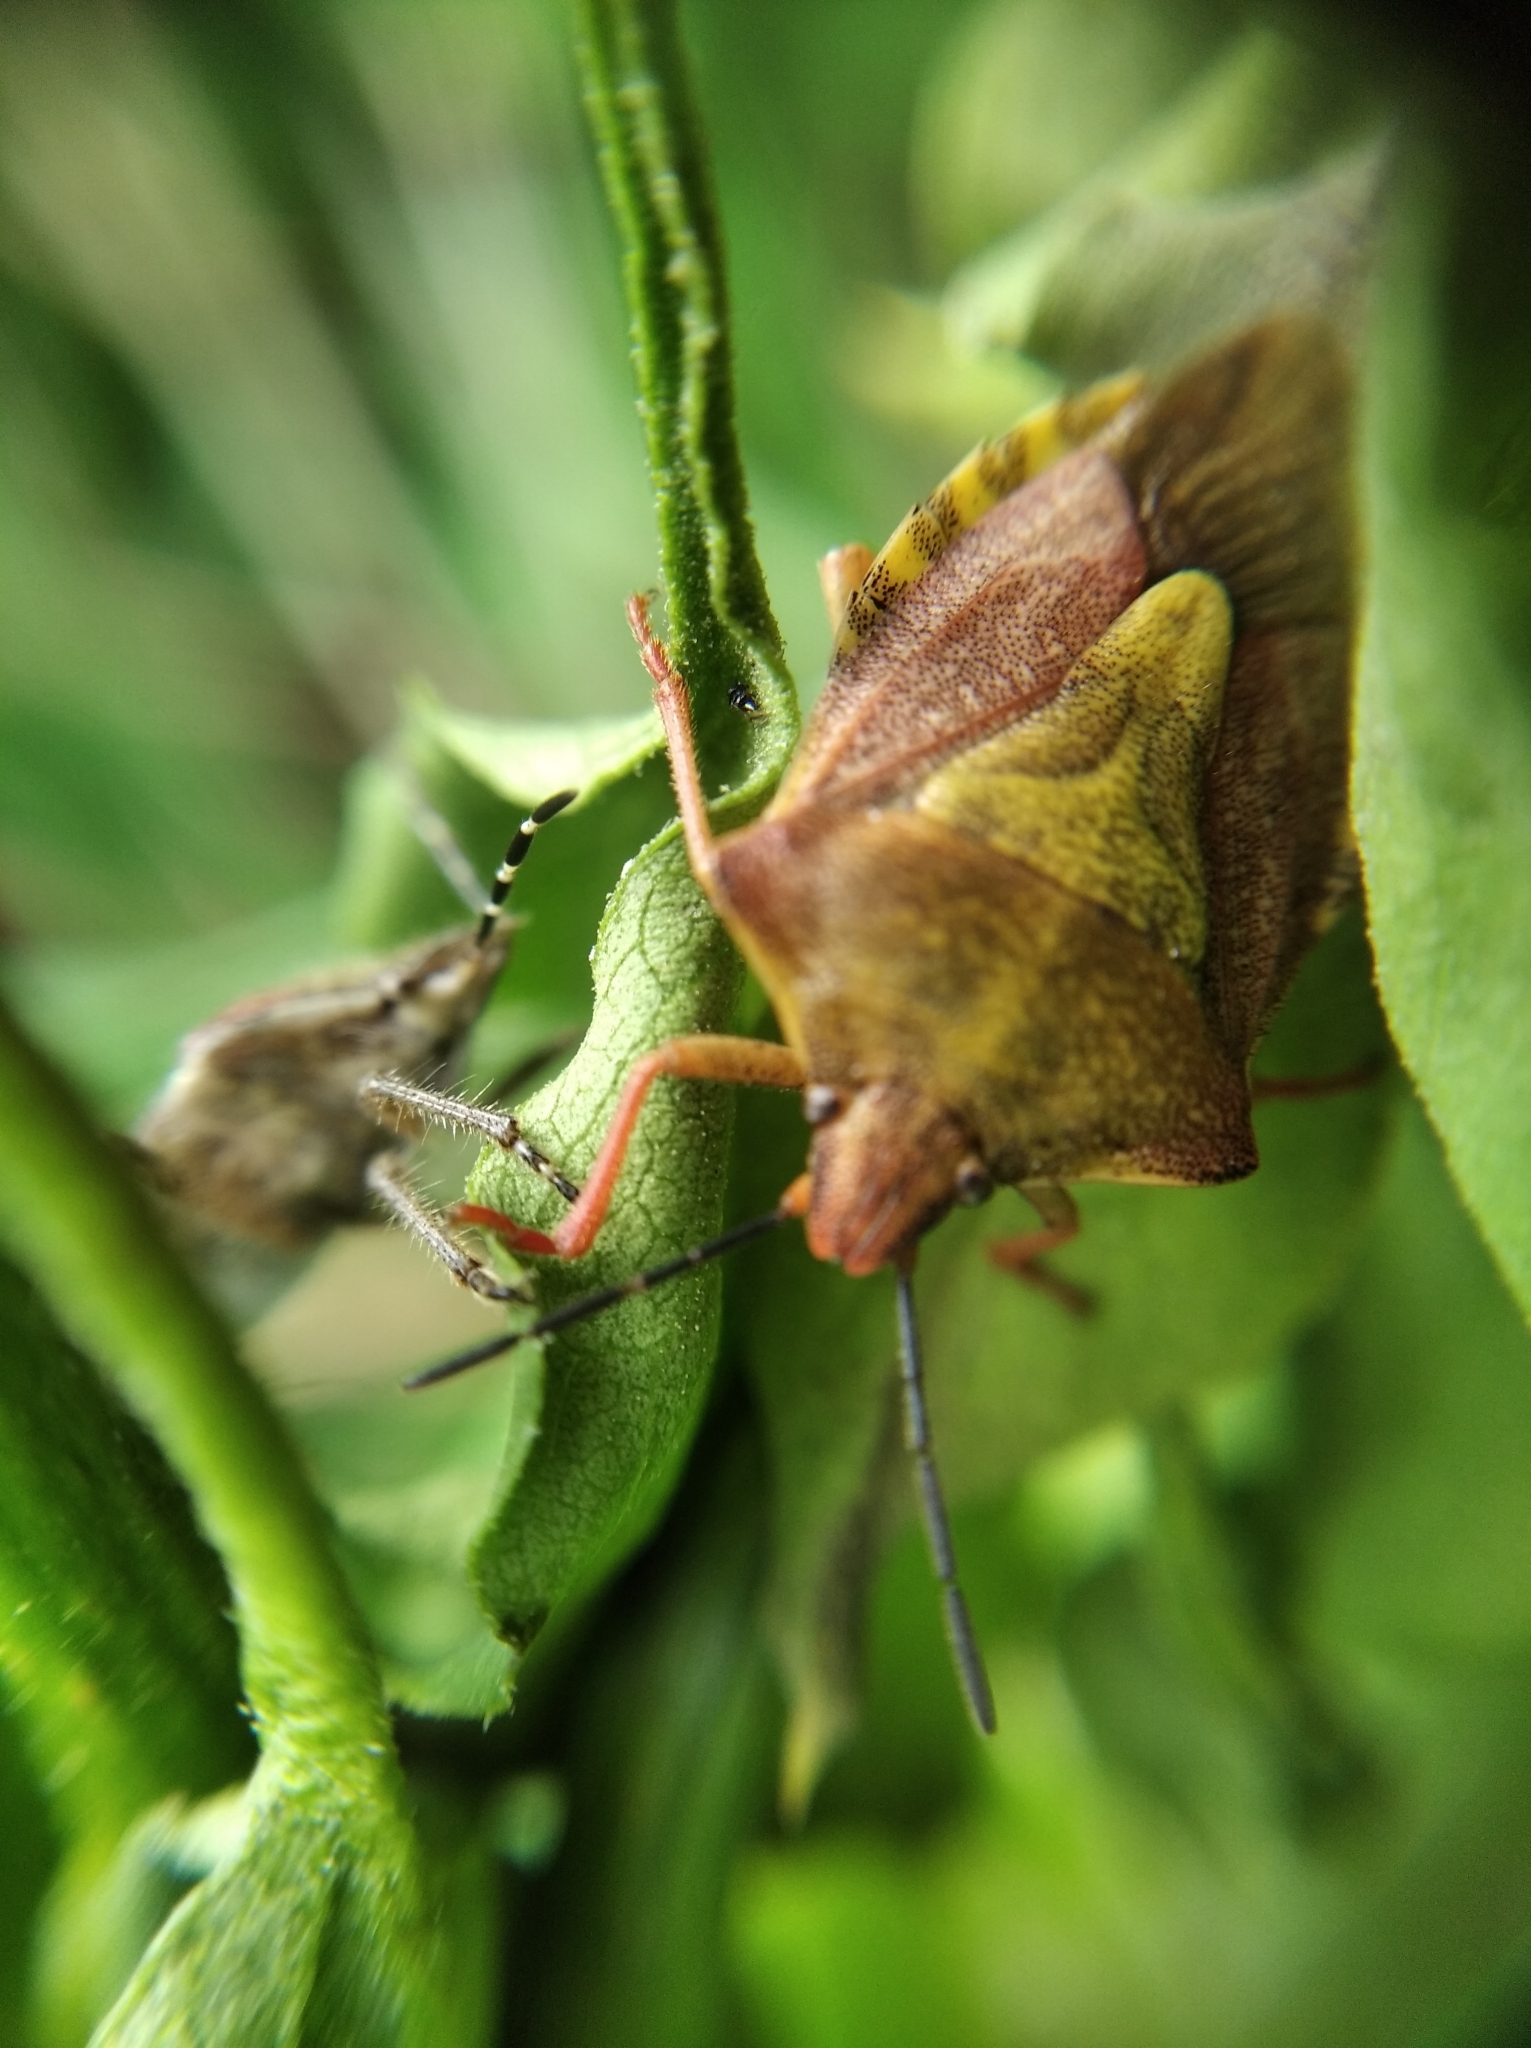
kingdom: Animalia
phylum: Arthropoda
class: Insecta
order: Hemiptera
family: Pentatomidae
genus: Carpocoris
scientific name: Carpocoris purpureipennis
